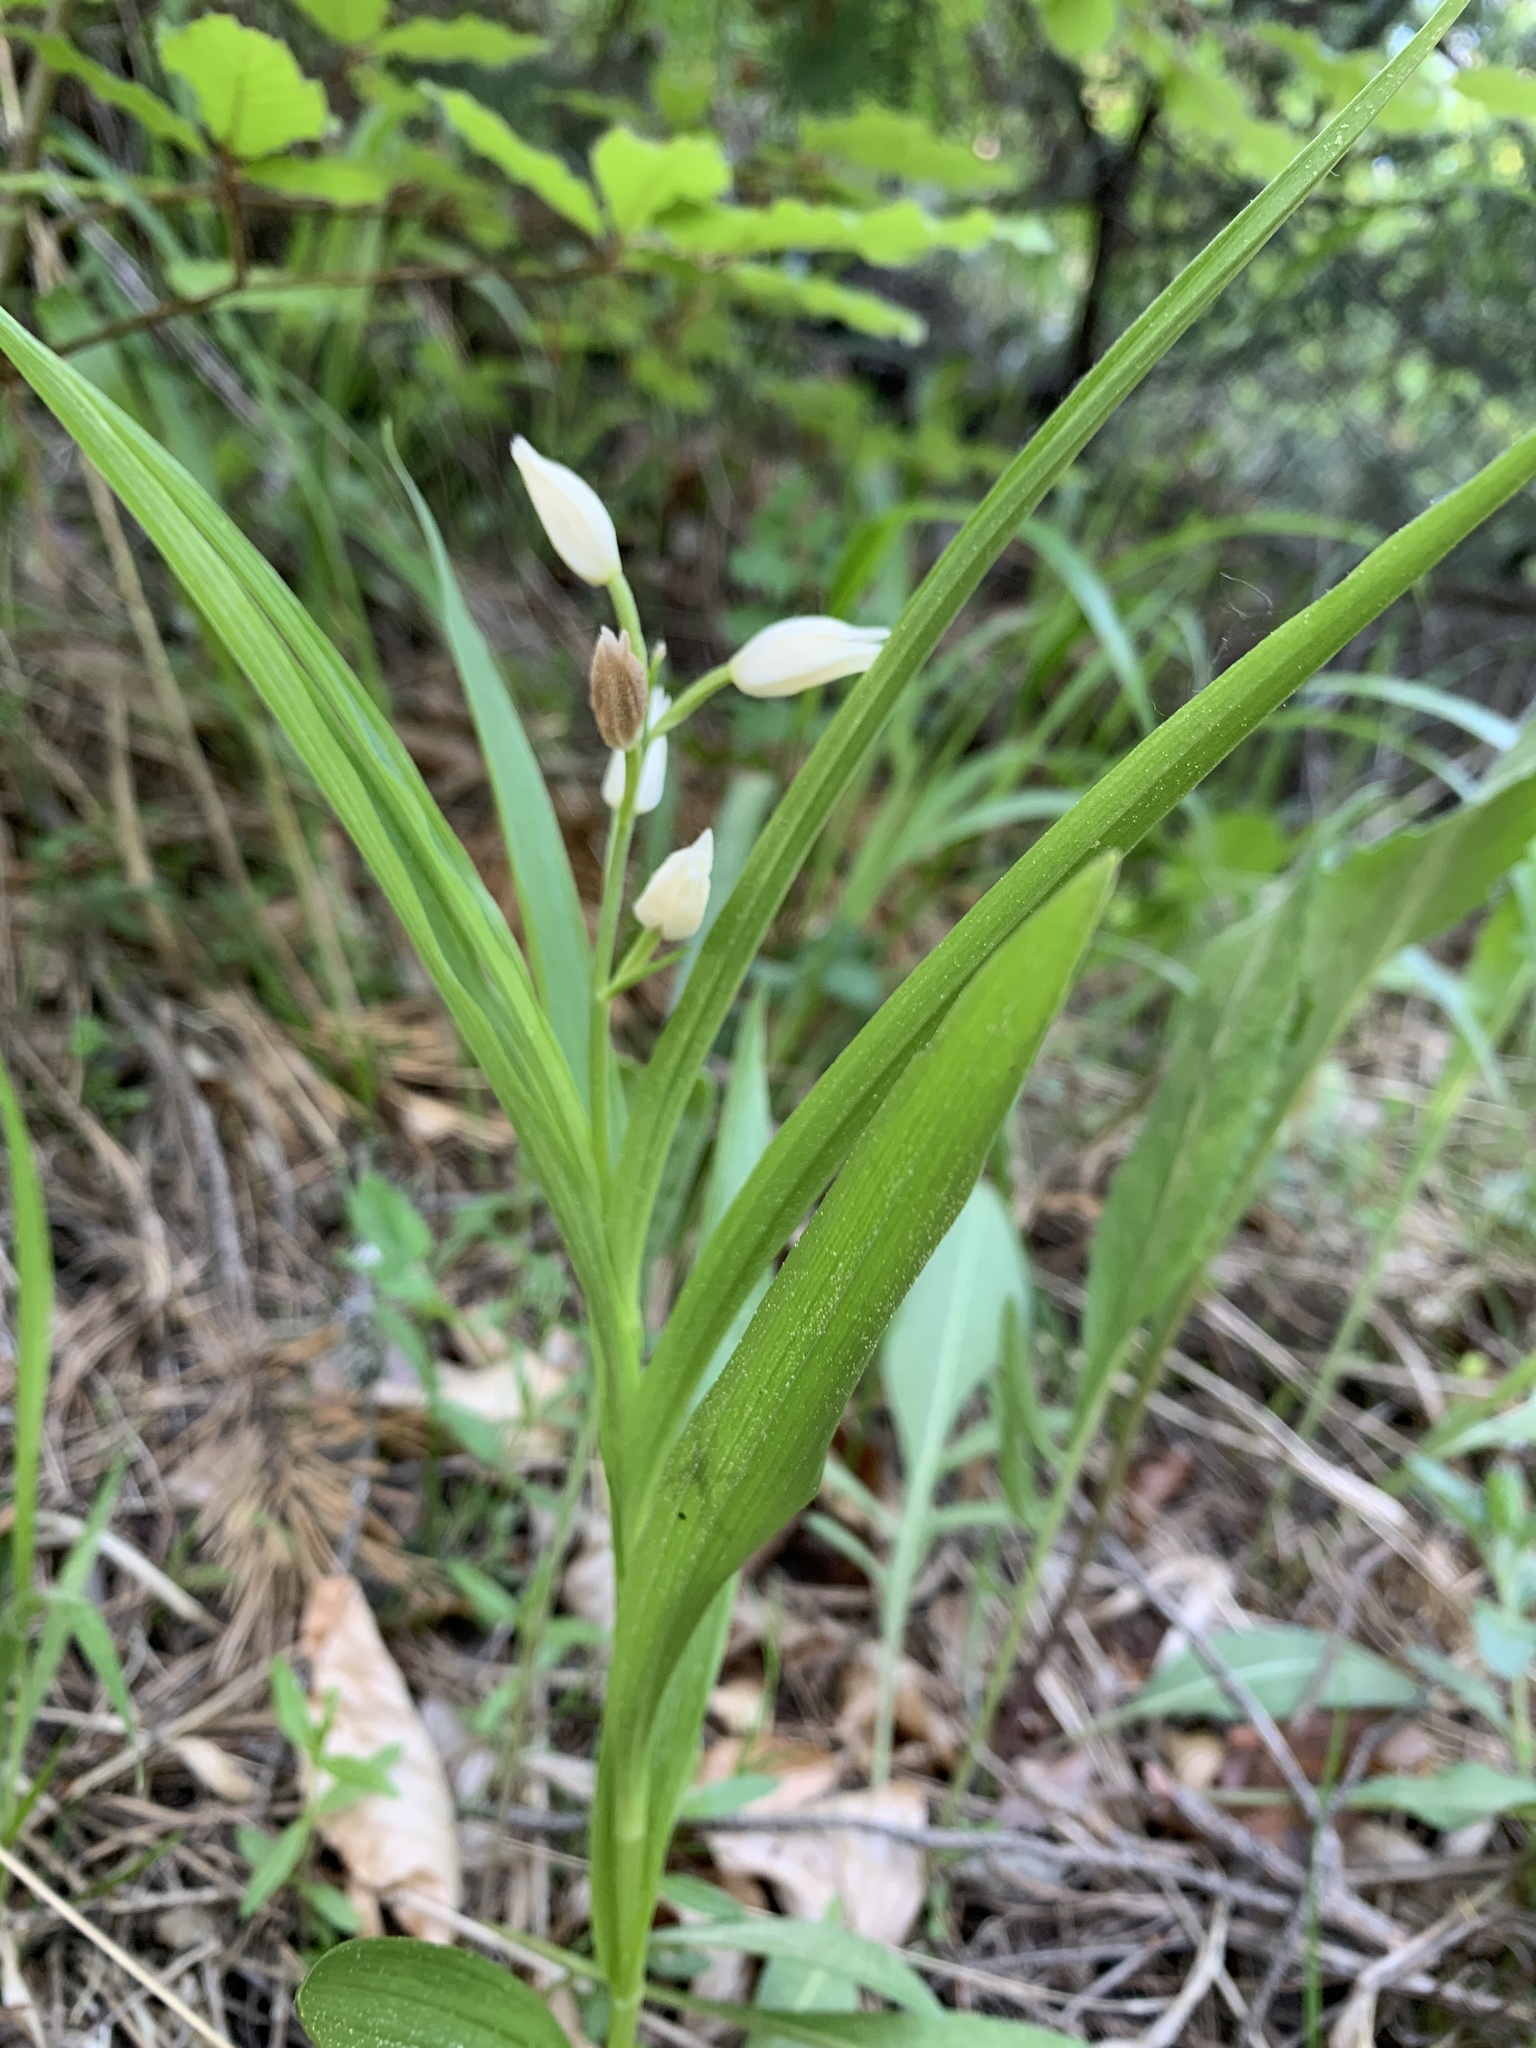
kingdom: Plantae
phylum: Tracheophyta
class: Liliopsida
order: Asparagales
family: Orchidaceae
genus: Cephalanthera
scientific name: Cephalanthera longifolia
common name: Narrow-leaved helleborine
